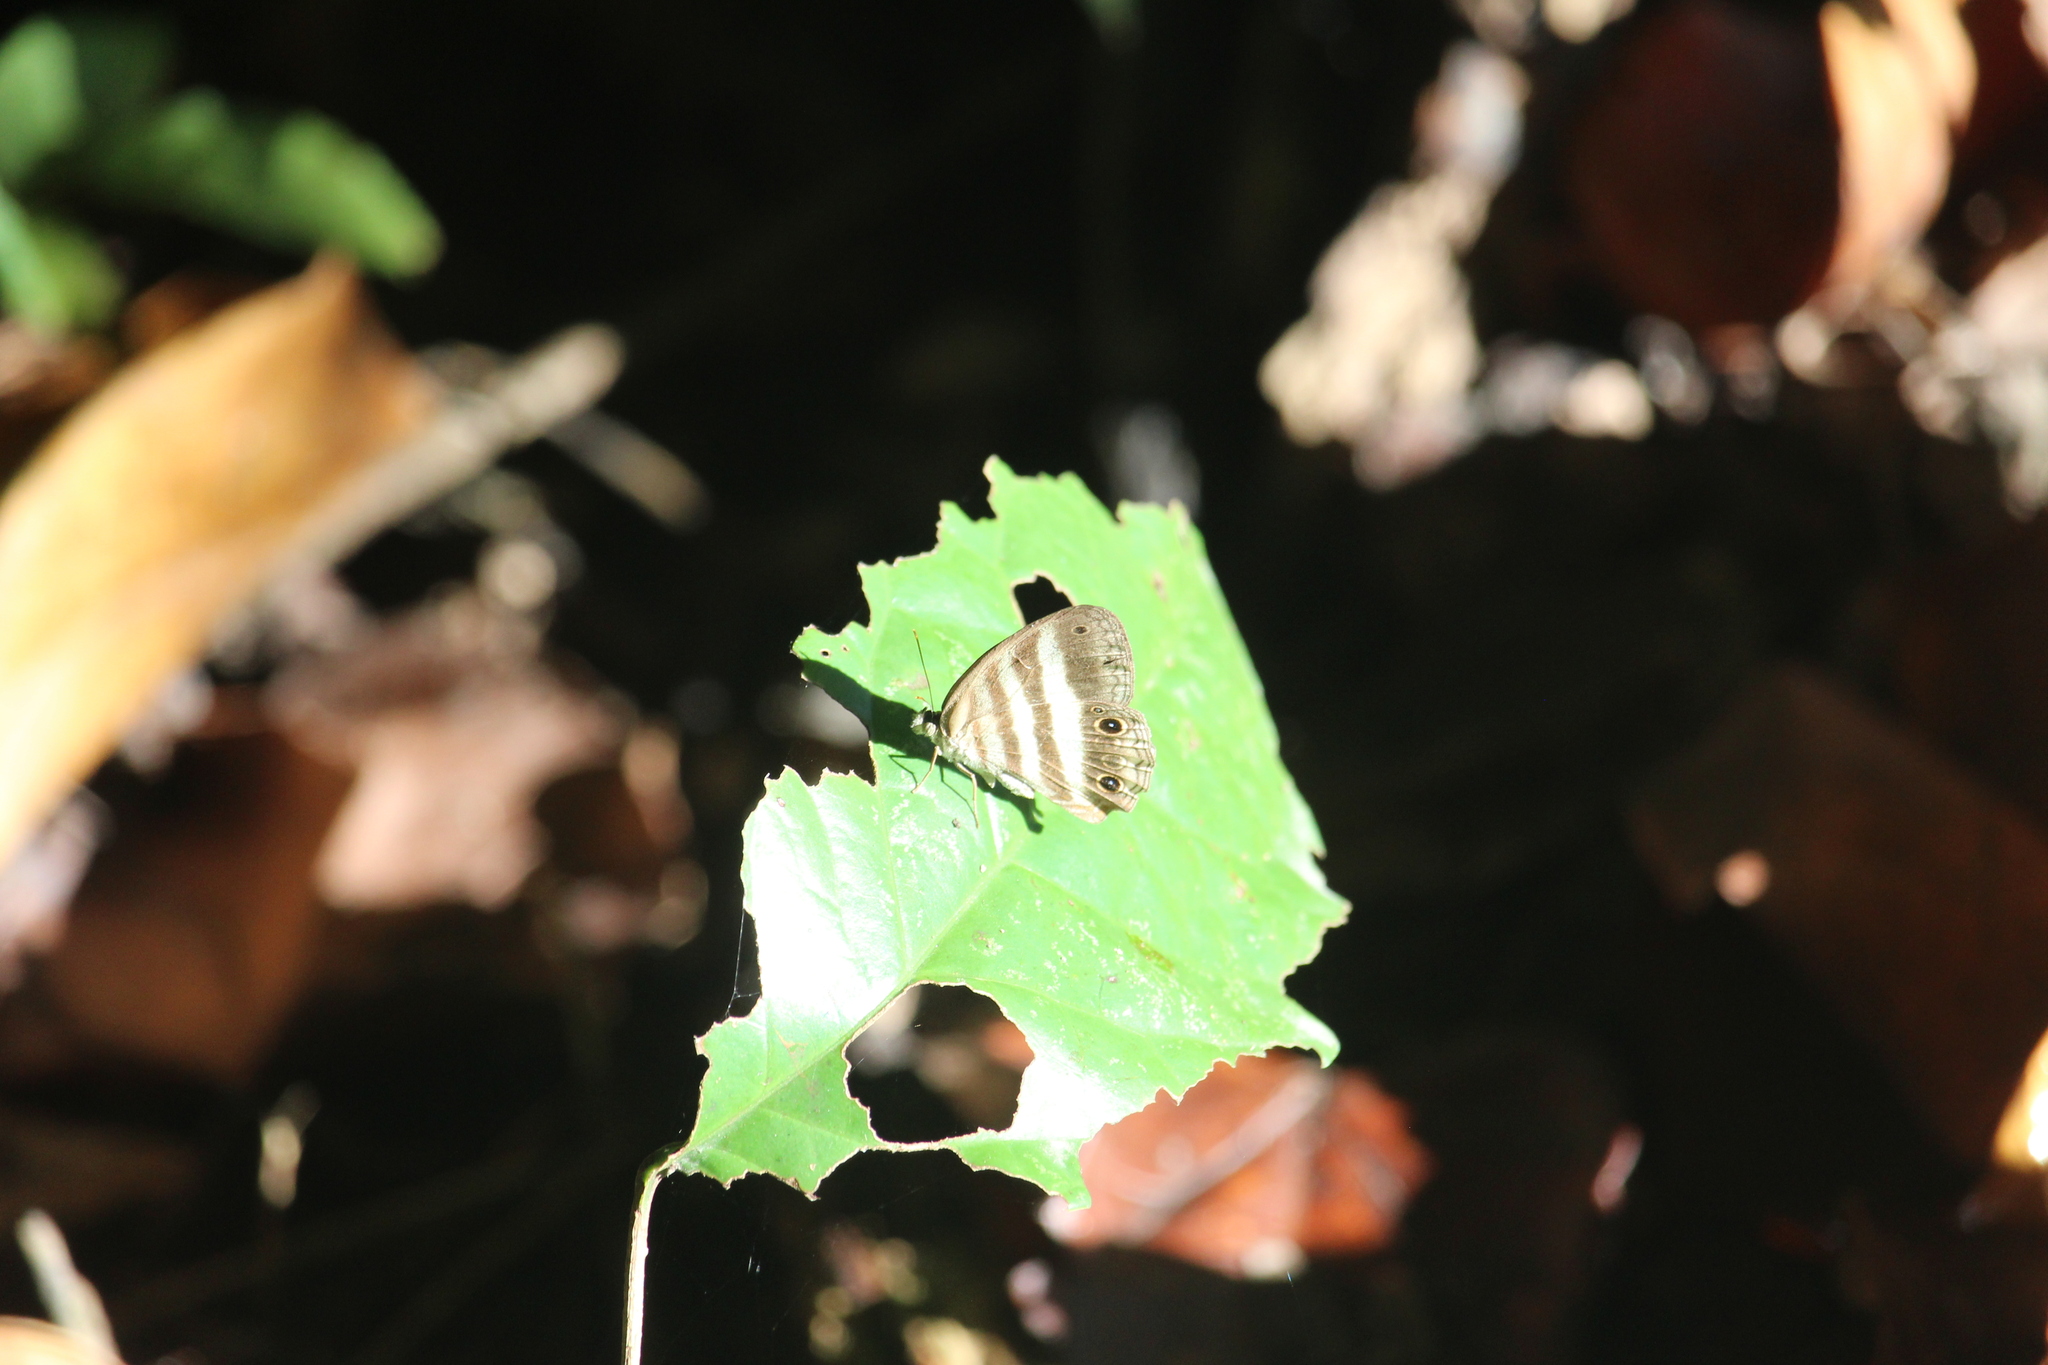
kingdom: Animalia
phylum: Arthropoda
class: Insecta
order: Lepidoptera
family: Nymphalidae
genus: Pareuptychia
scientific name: Pareuptychia hesione
